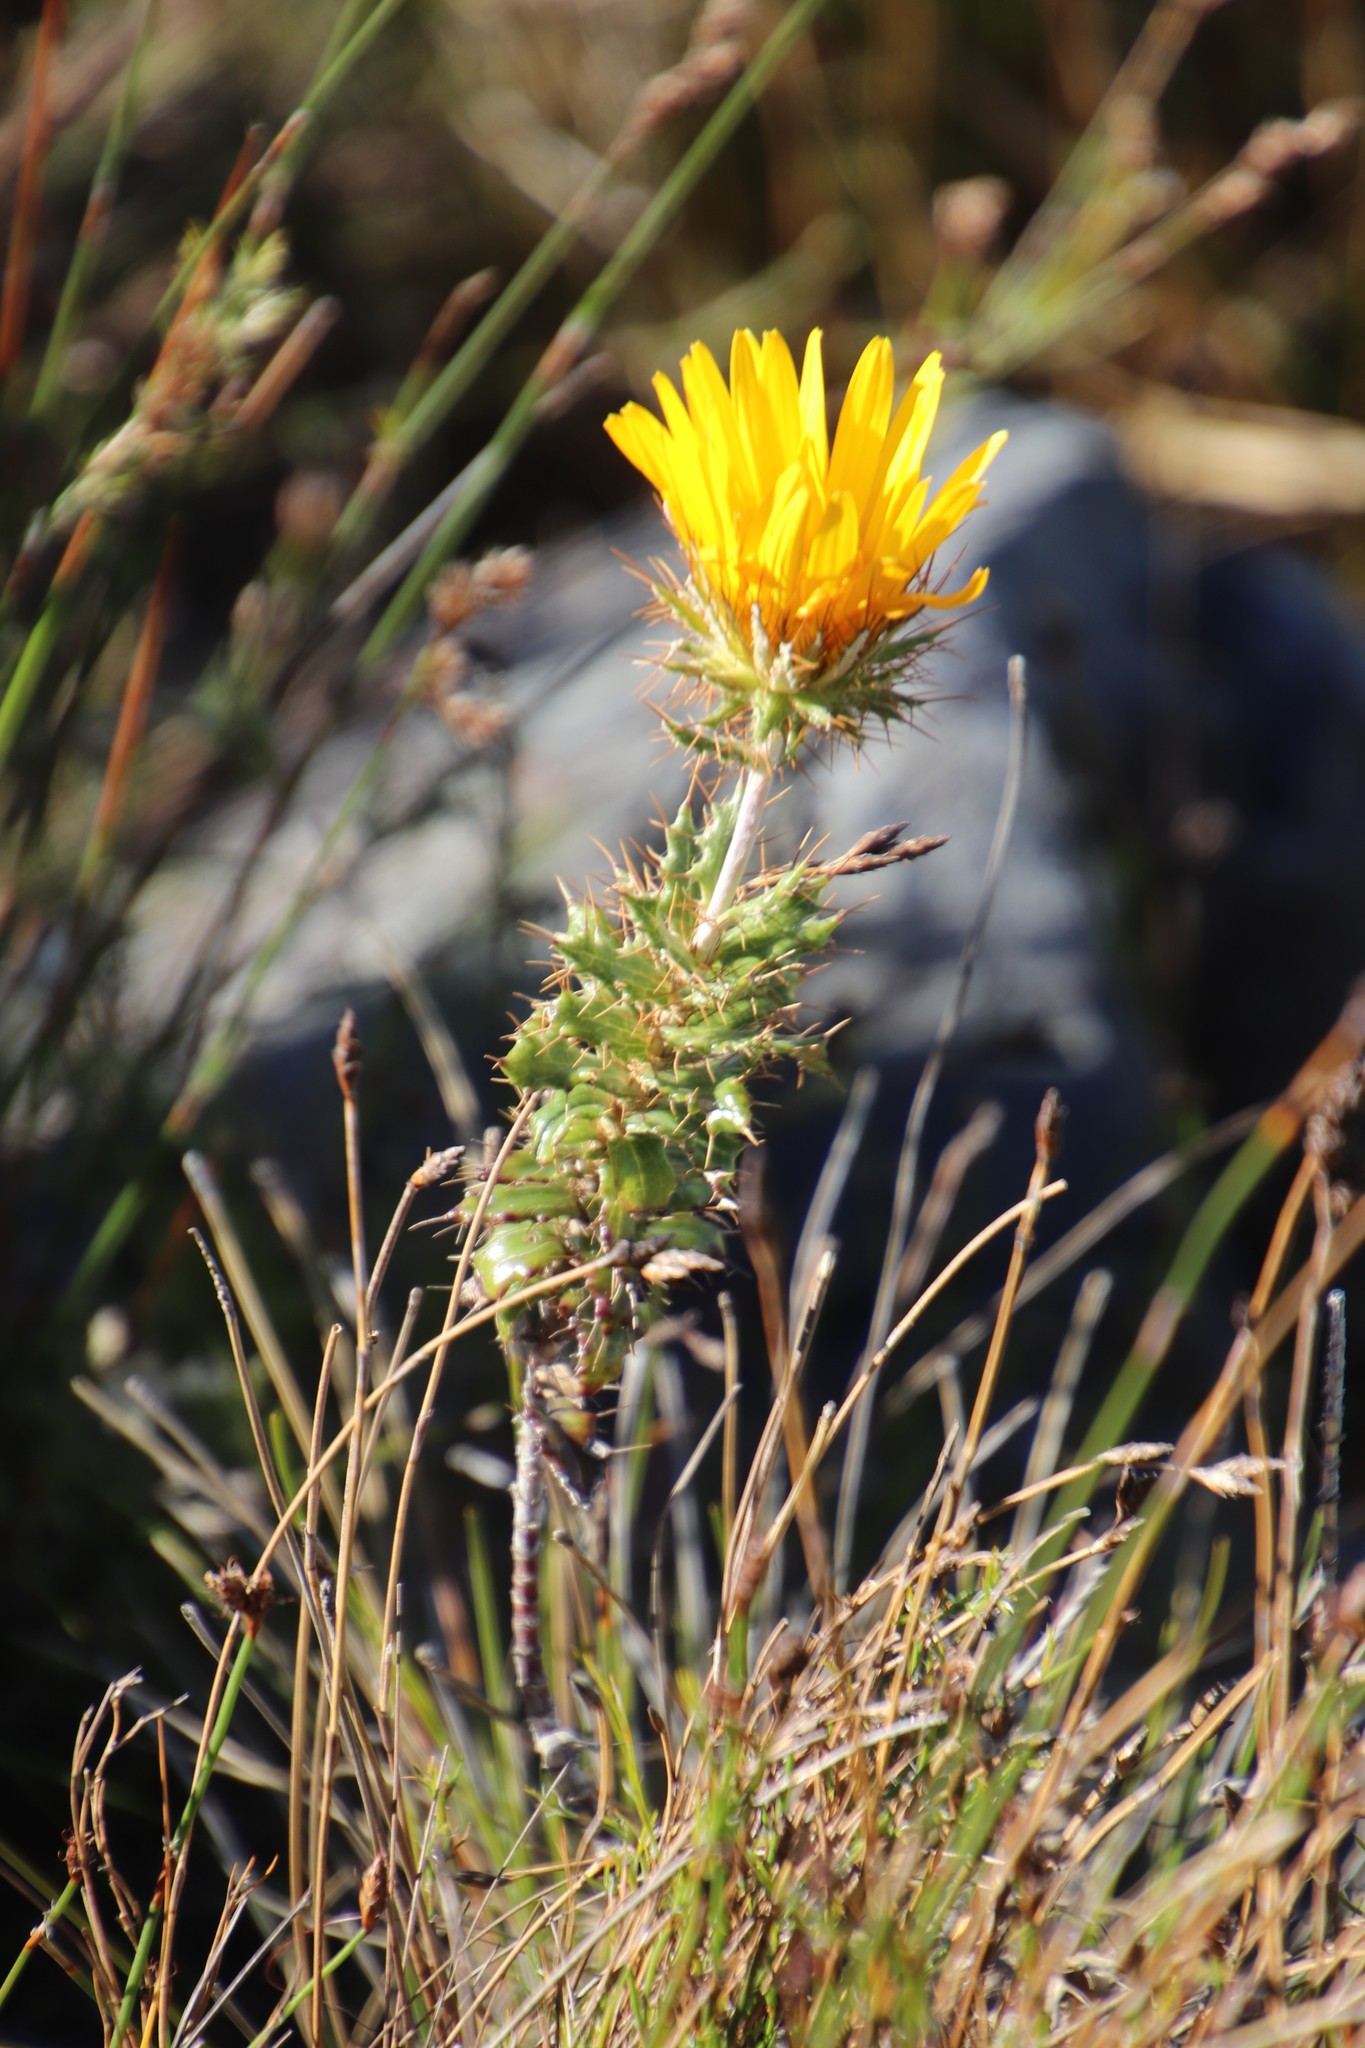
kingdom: Plantae
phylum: Tracheophyta
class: Magnoliopsida
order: Asterales
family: Asteraceae
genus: Berkheya
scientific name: Berkheya barbata
